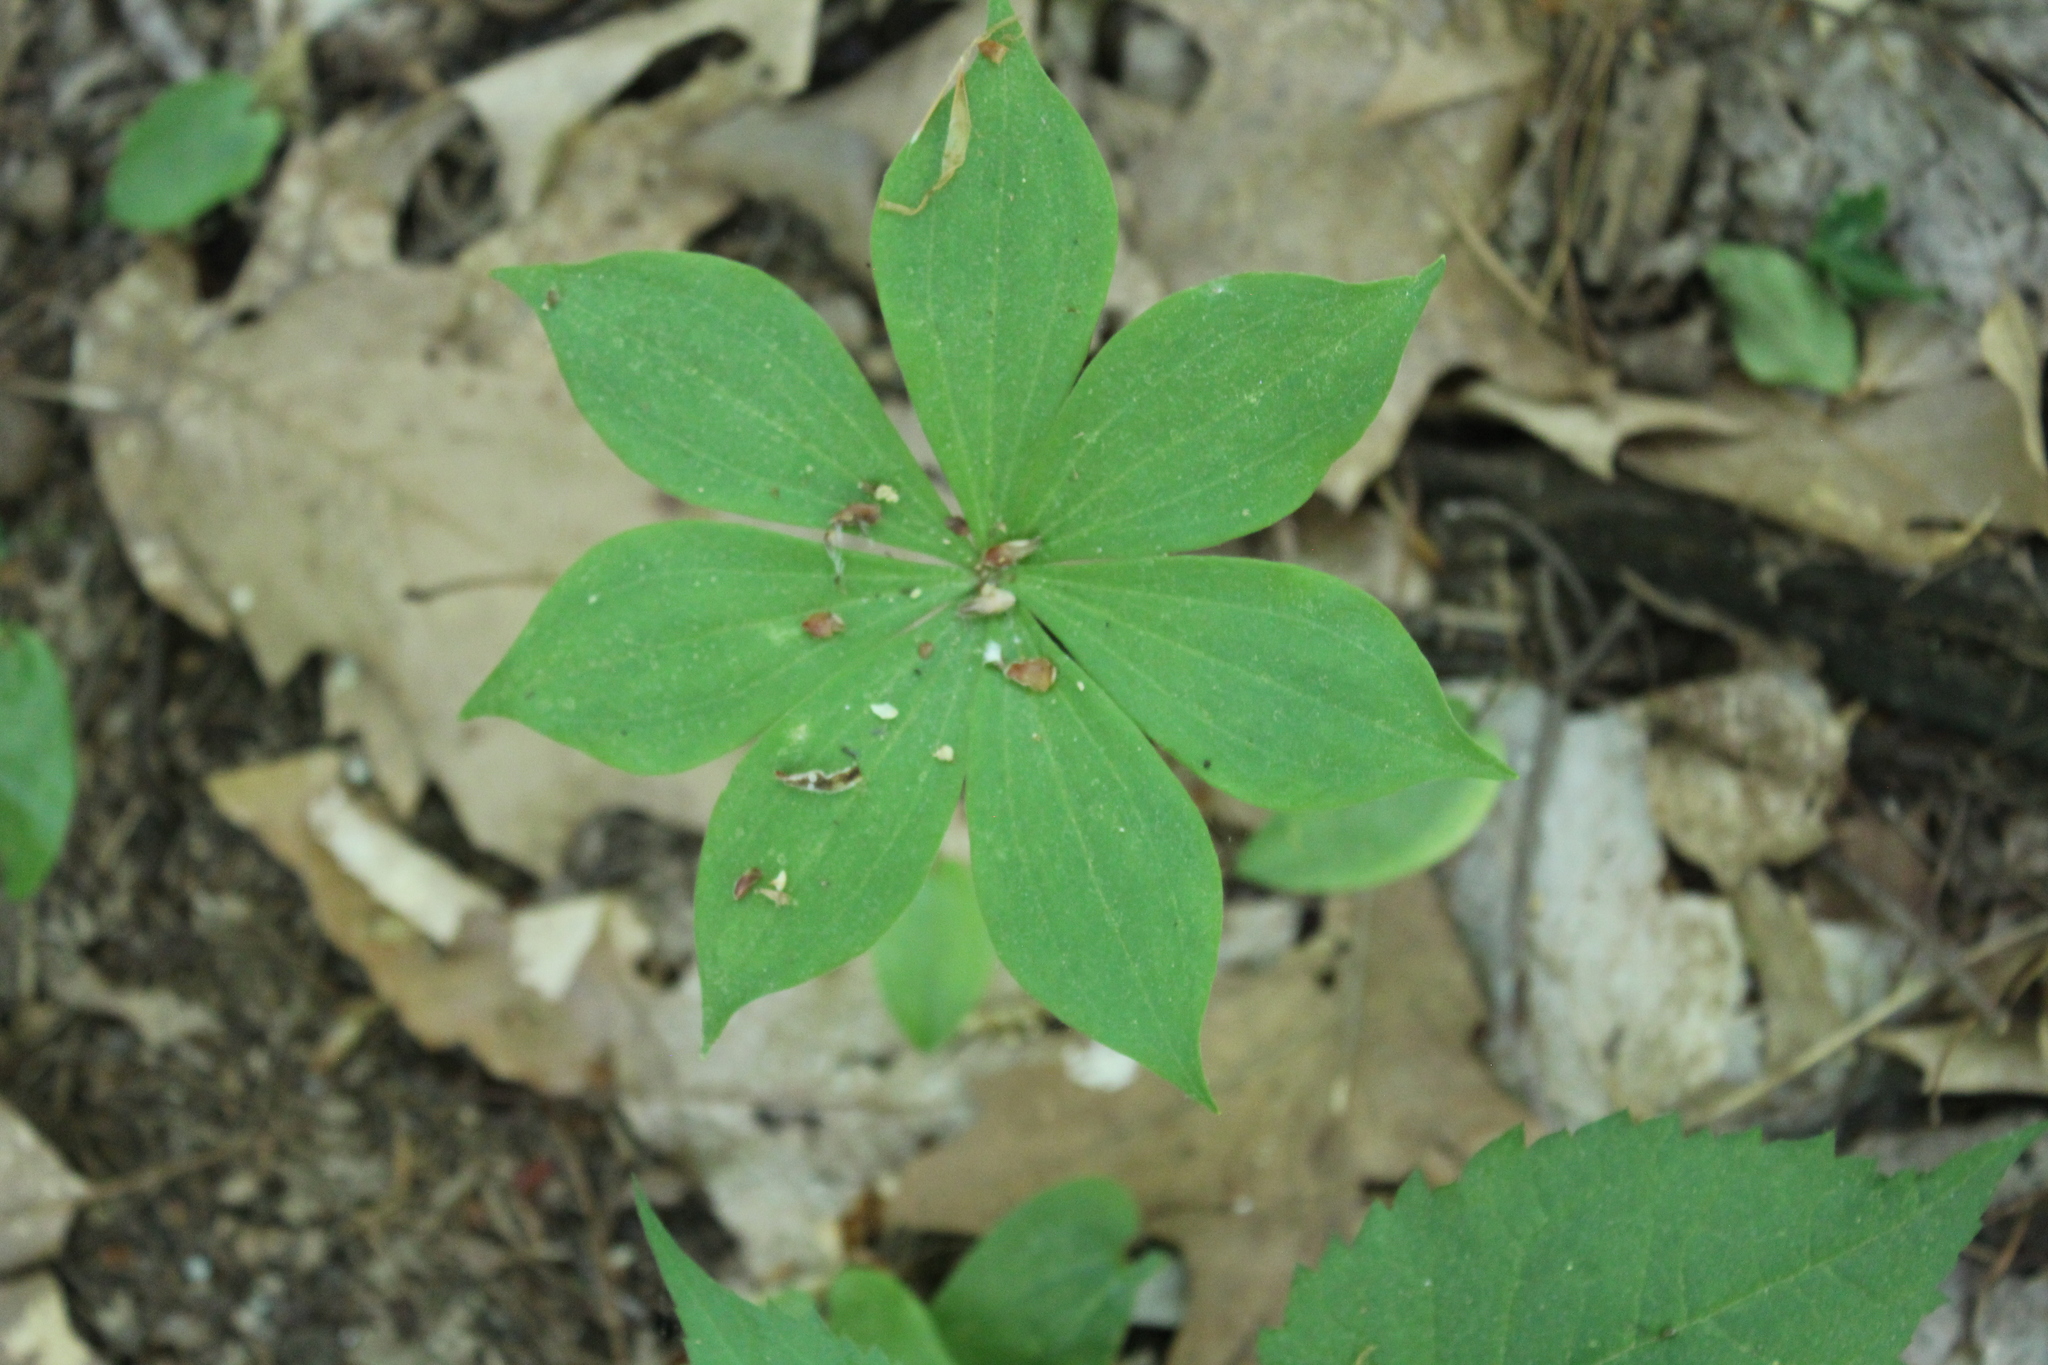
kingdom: Plantae
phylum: Tracheophyta
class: Liliopsida
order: Liliales
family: Liliaceae
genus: Medeola
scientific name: Medeola virginiana
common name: Indian cucumber-root
